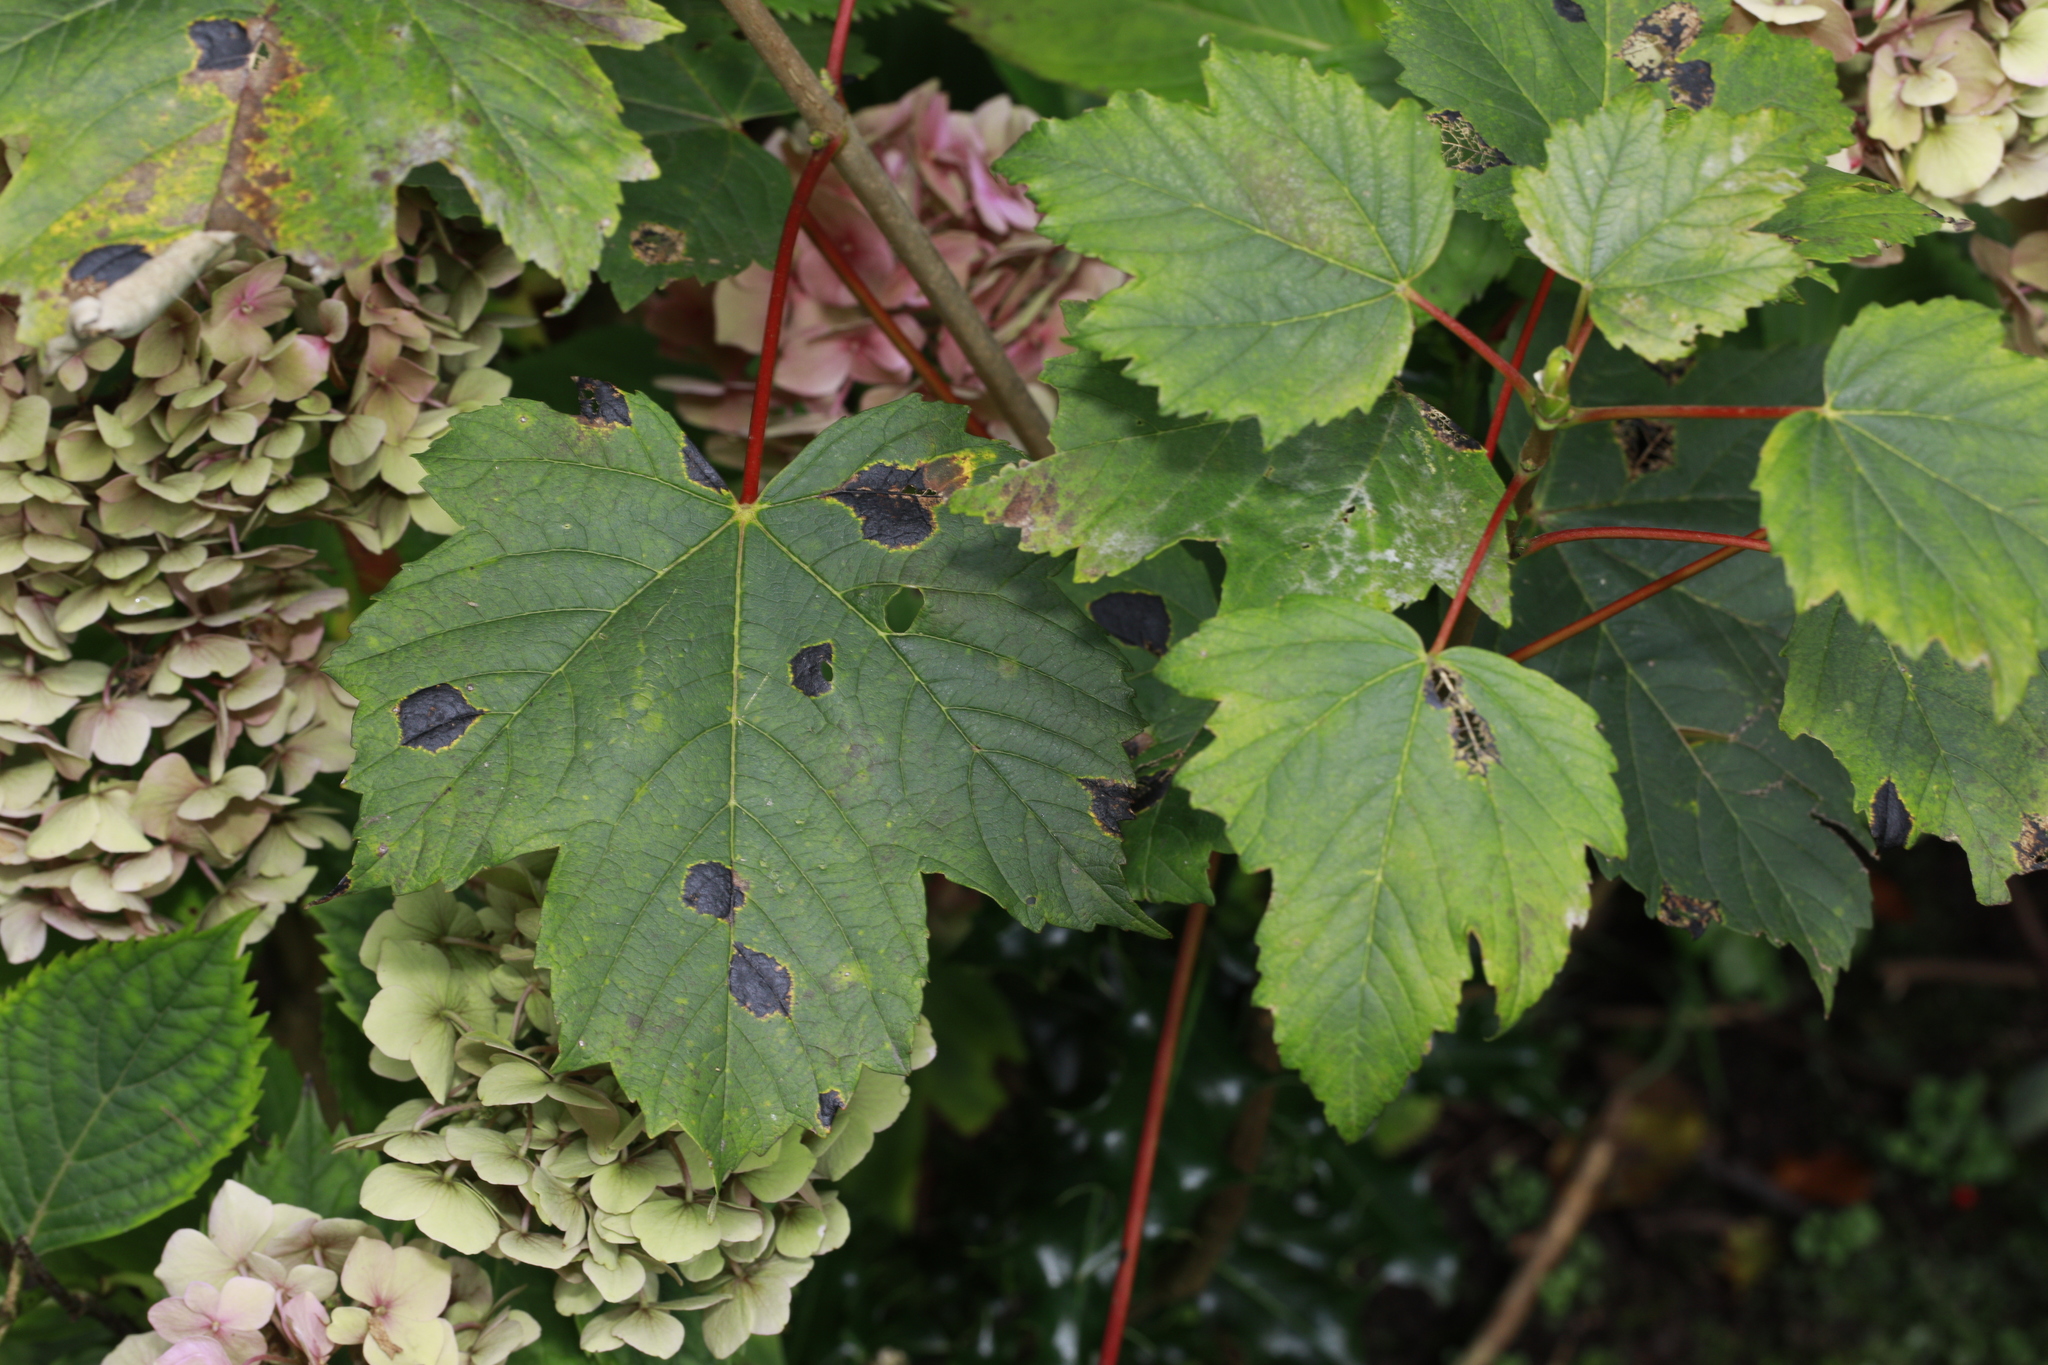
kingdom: Plantae
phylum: Tracheophyta
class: Magnoliopsida
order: Sapindales
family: Sapindaceae
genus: Acer
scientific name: Acer pseudoplatanus
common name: Sycamore
